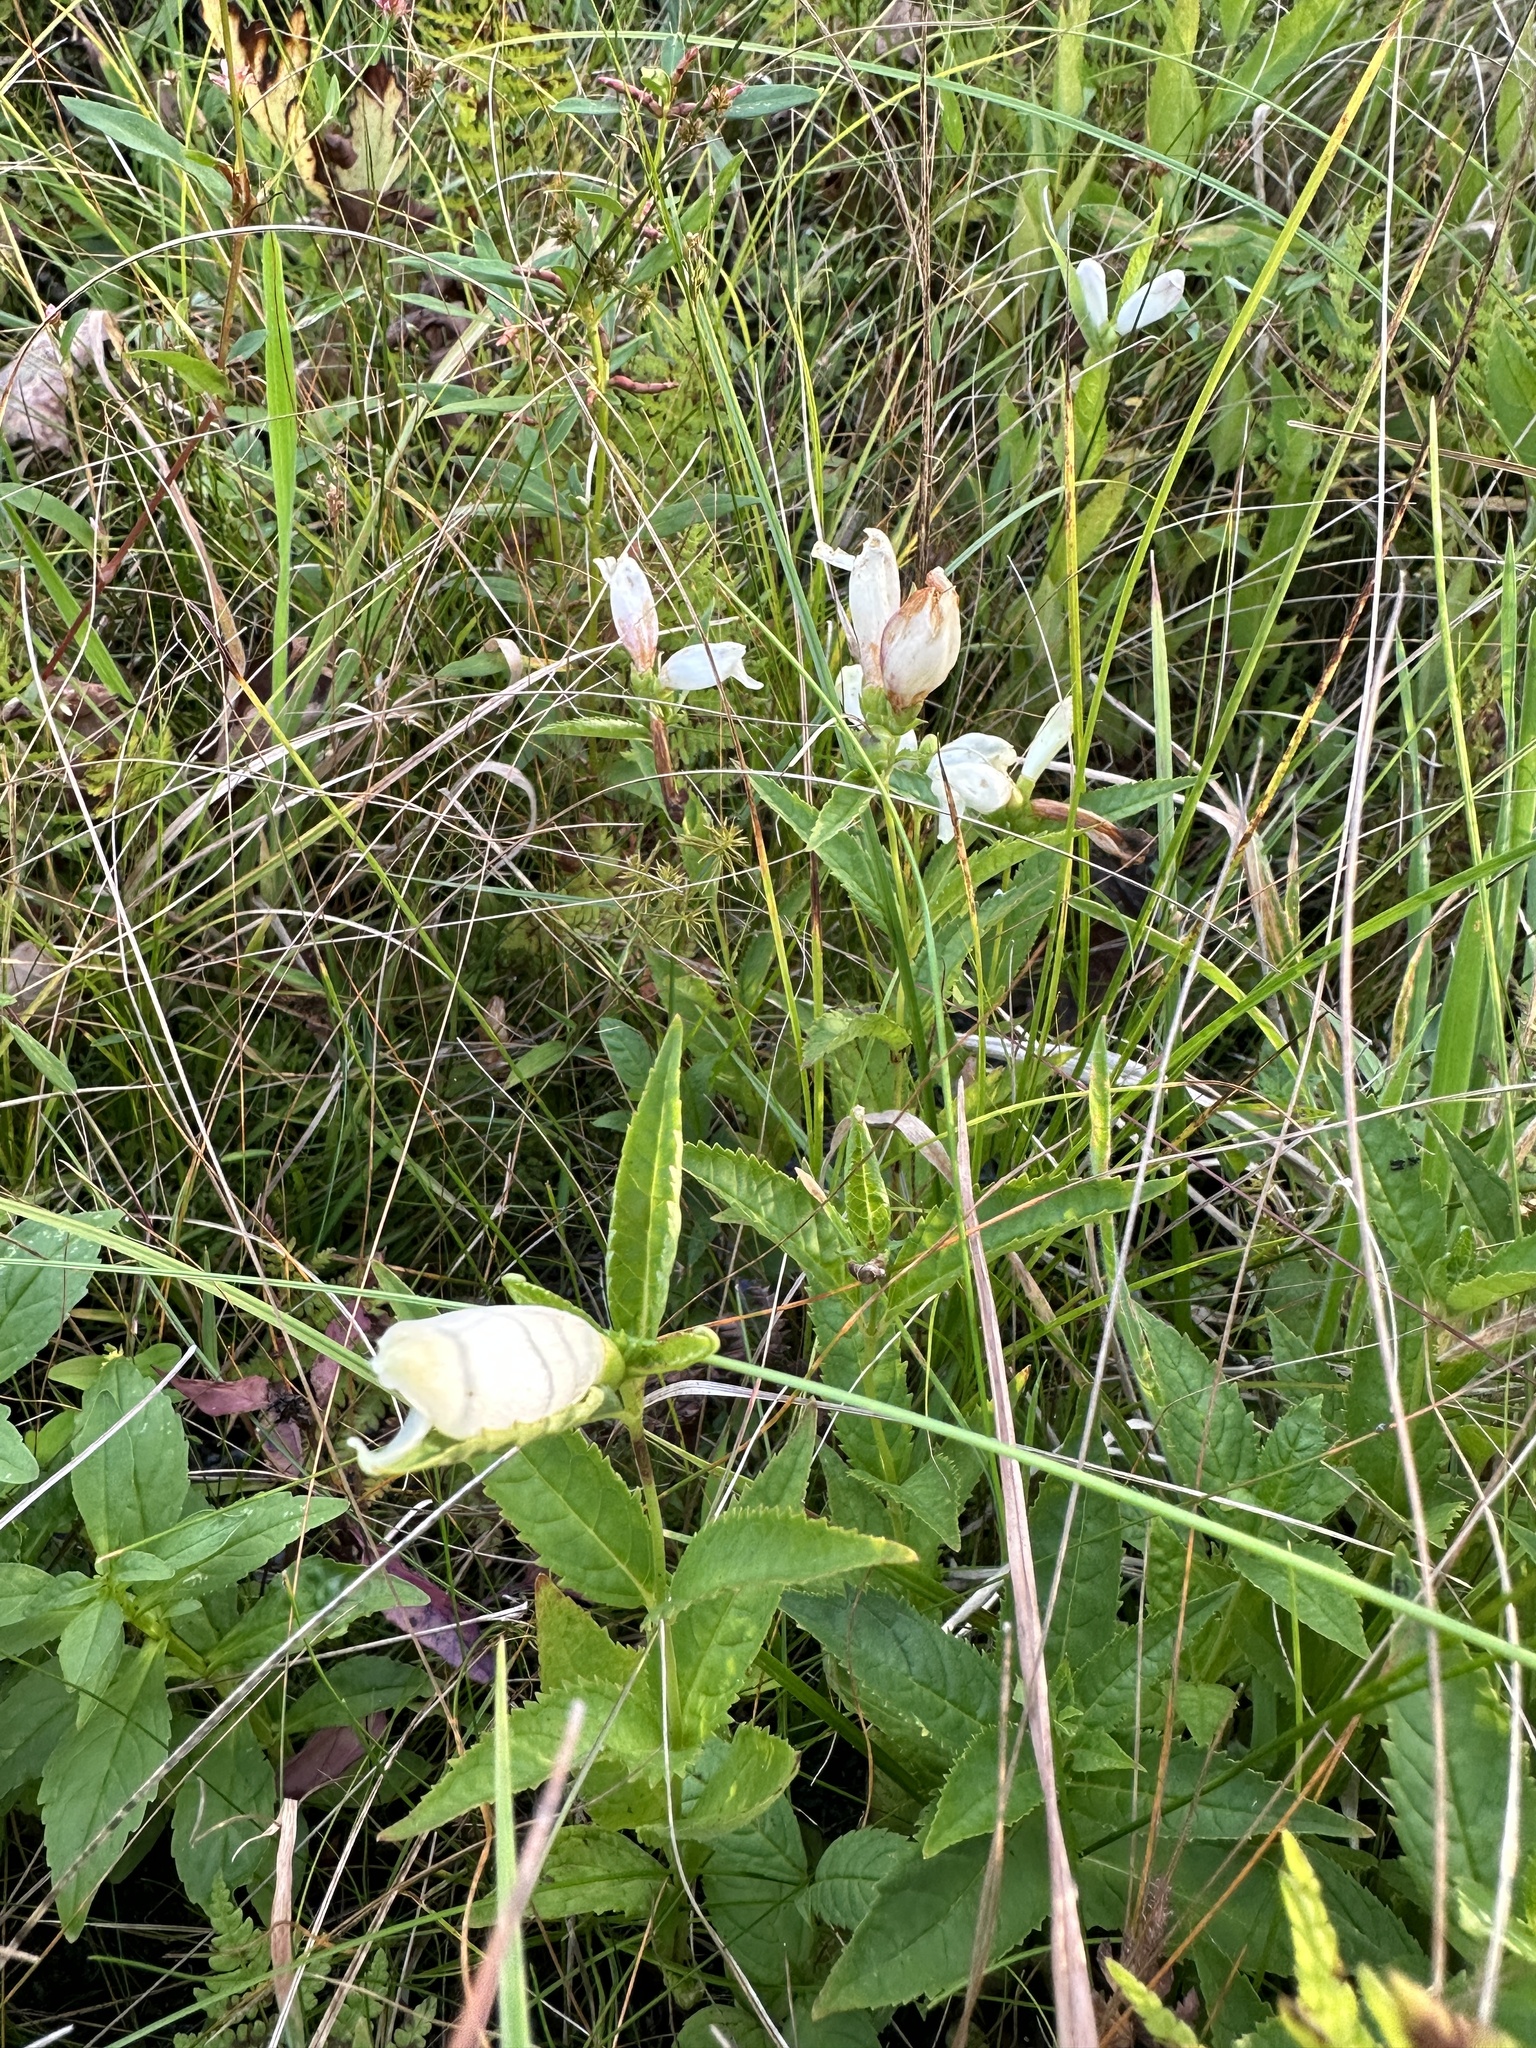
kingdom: Plantae
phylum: Tracheophyta
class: Magnoliopsida
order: Lamiales
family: Plantaginaceae
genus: Chelone
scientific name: Chelone glabra
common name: Snakehead
